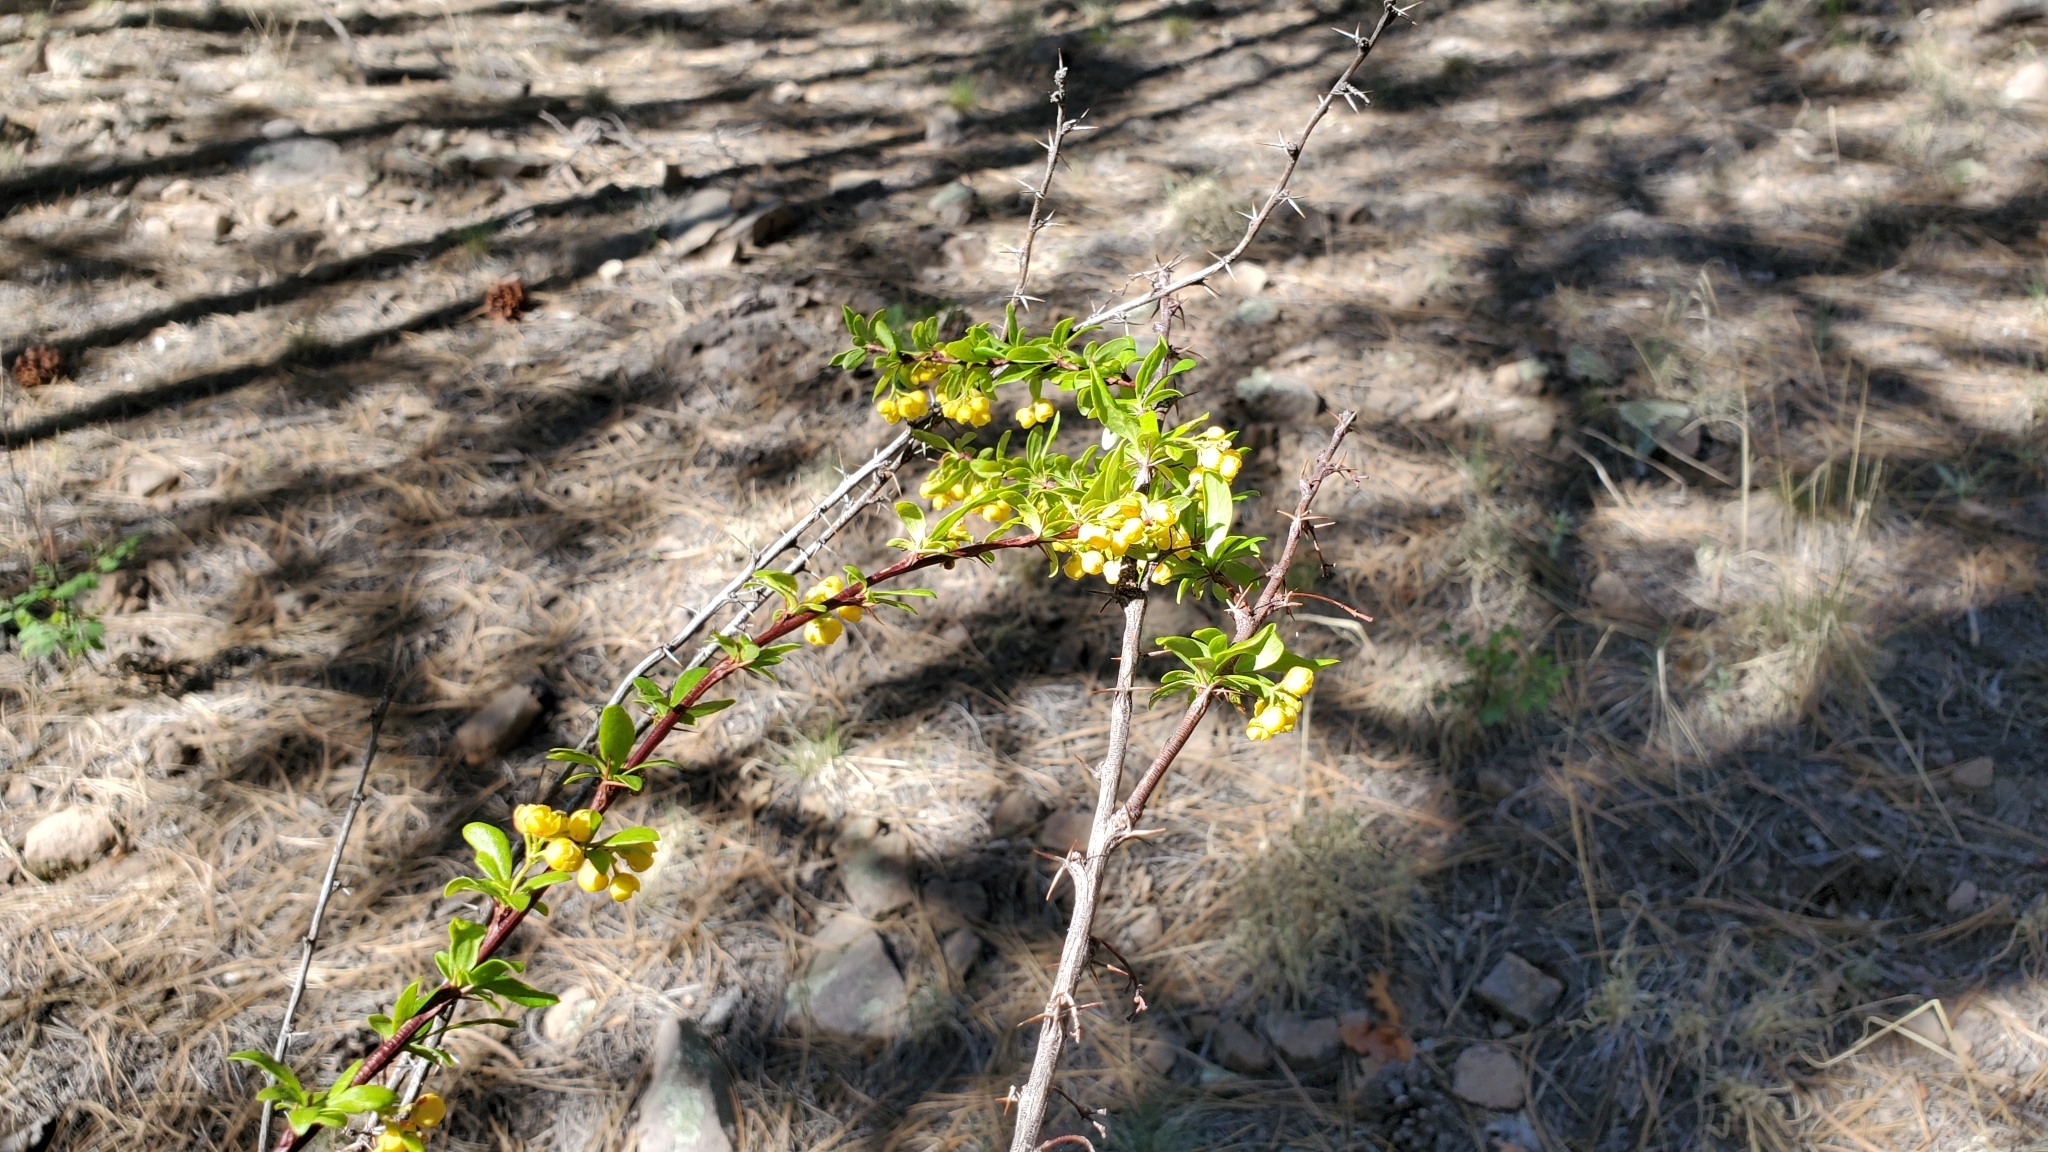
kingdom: Plantae
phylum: Tracheophyta
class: Magnoliopsida
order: Ranunculales
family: Berberidaceae
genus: Berberis
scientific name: Berberis fendleri
